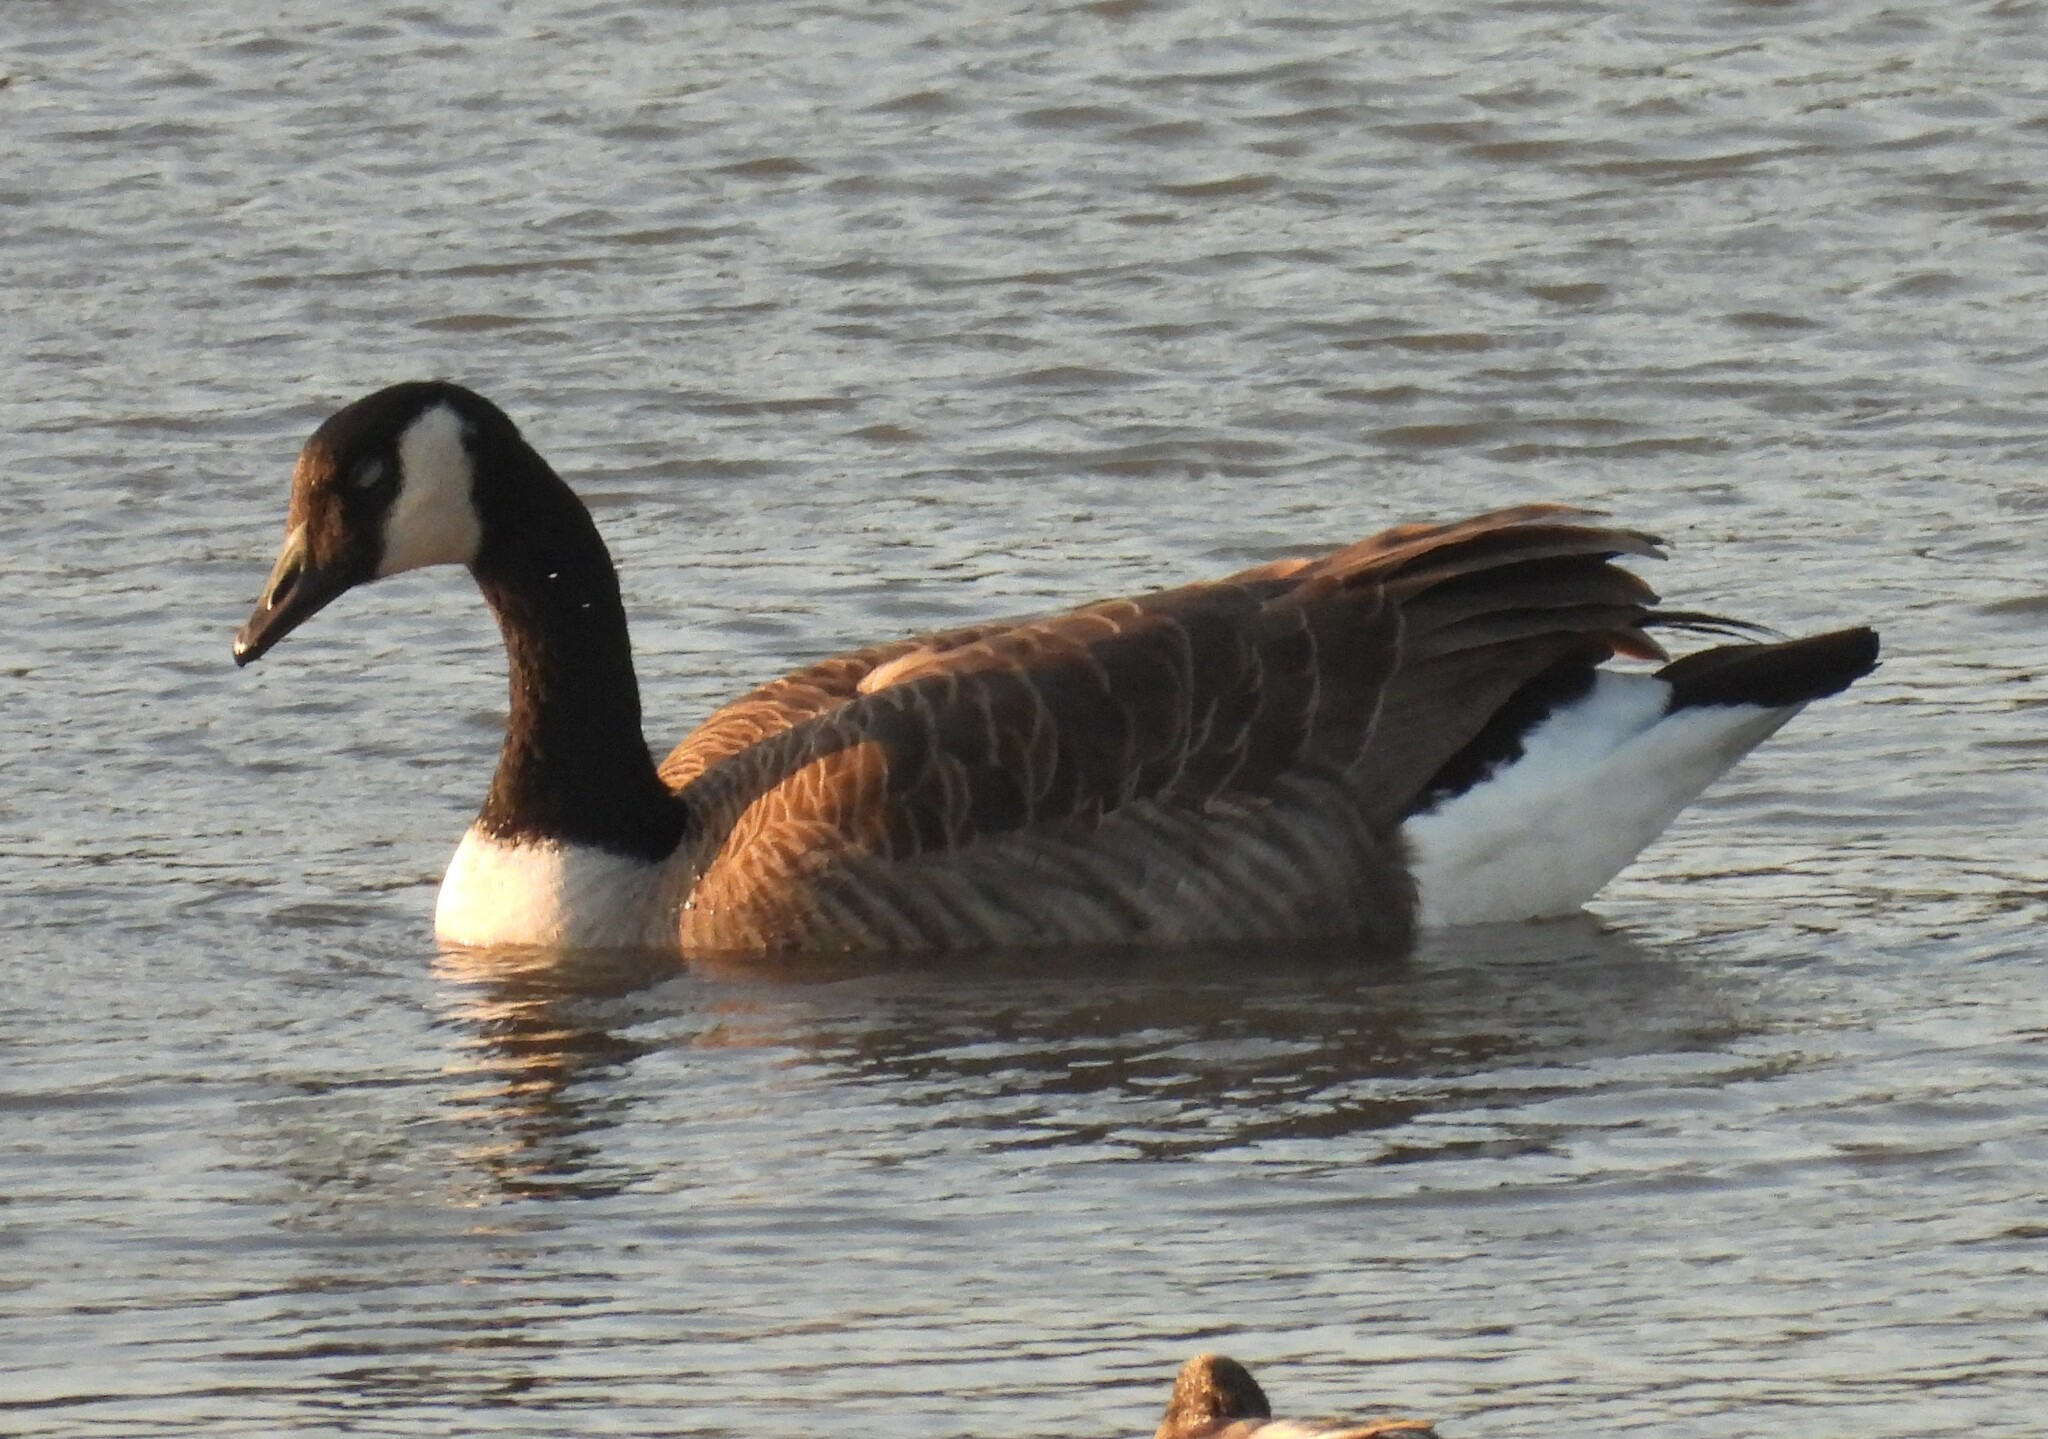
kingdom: Animalia
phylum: Chordata
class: Aves
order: Anseriformes
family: Anatidae
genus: Branta
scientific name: Branta canadensis
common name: Canada goose
